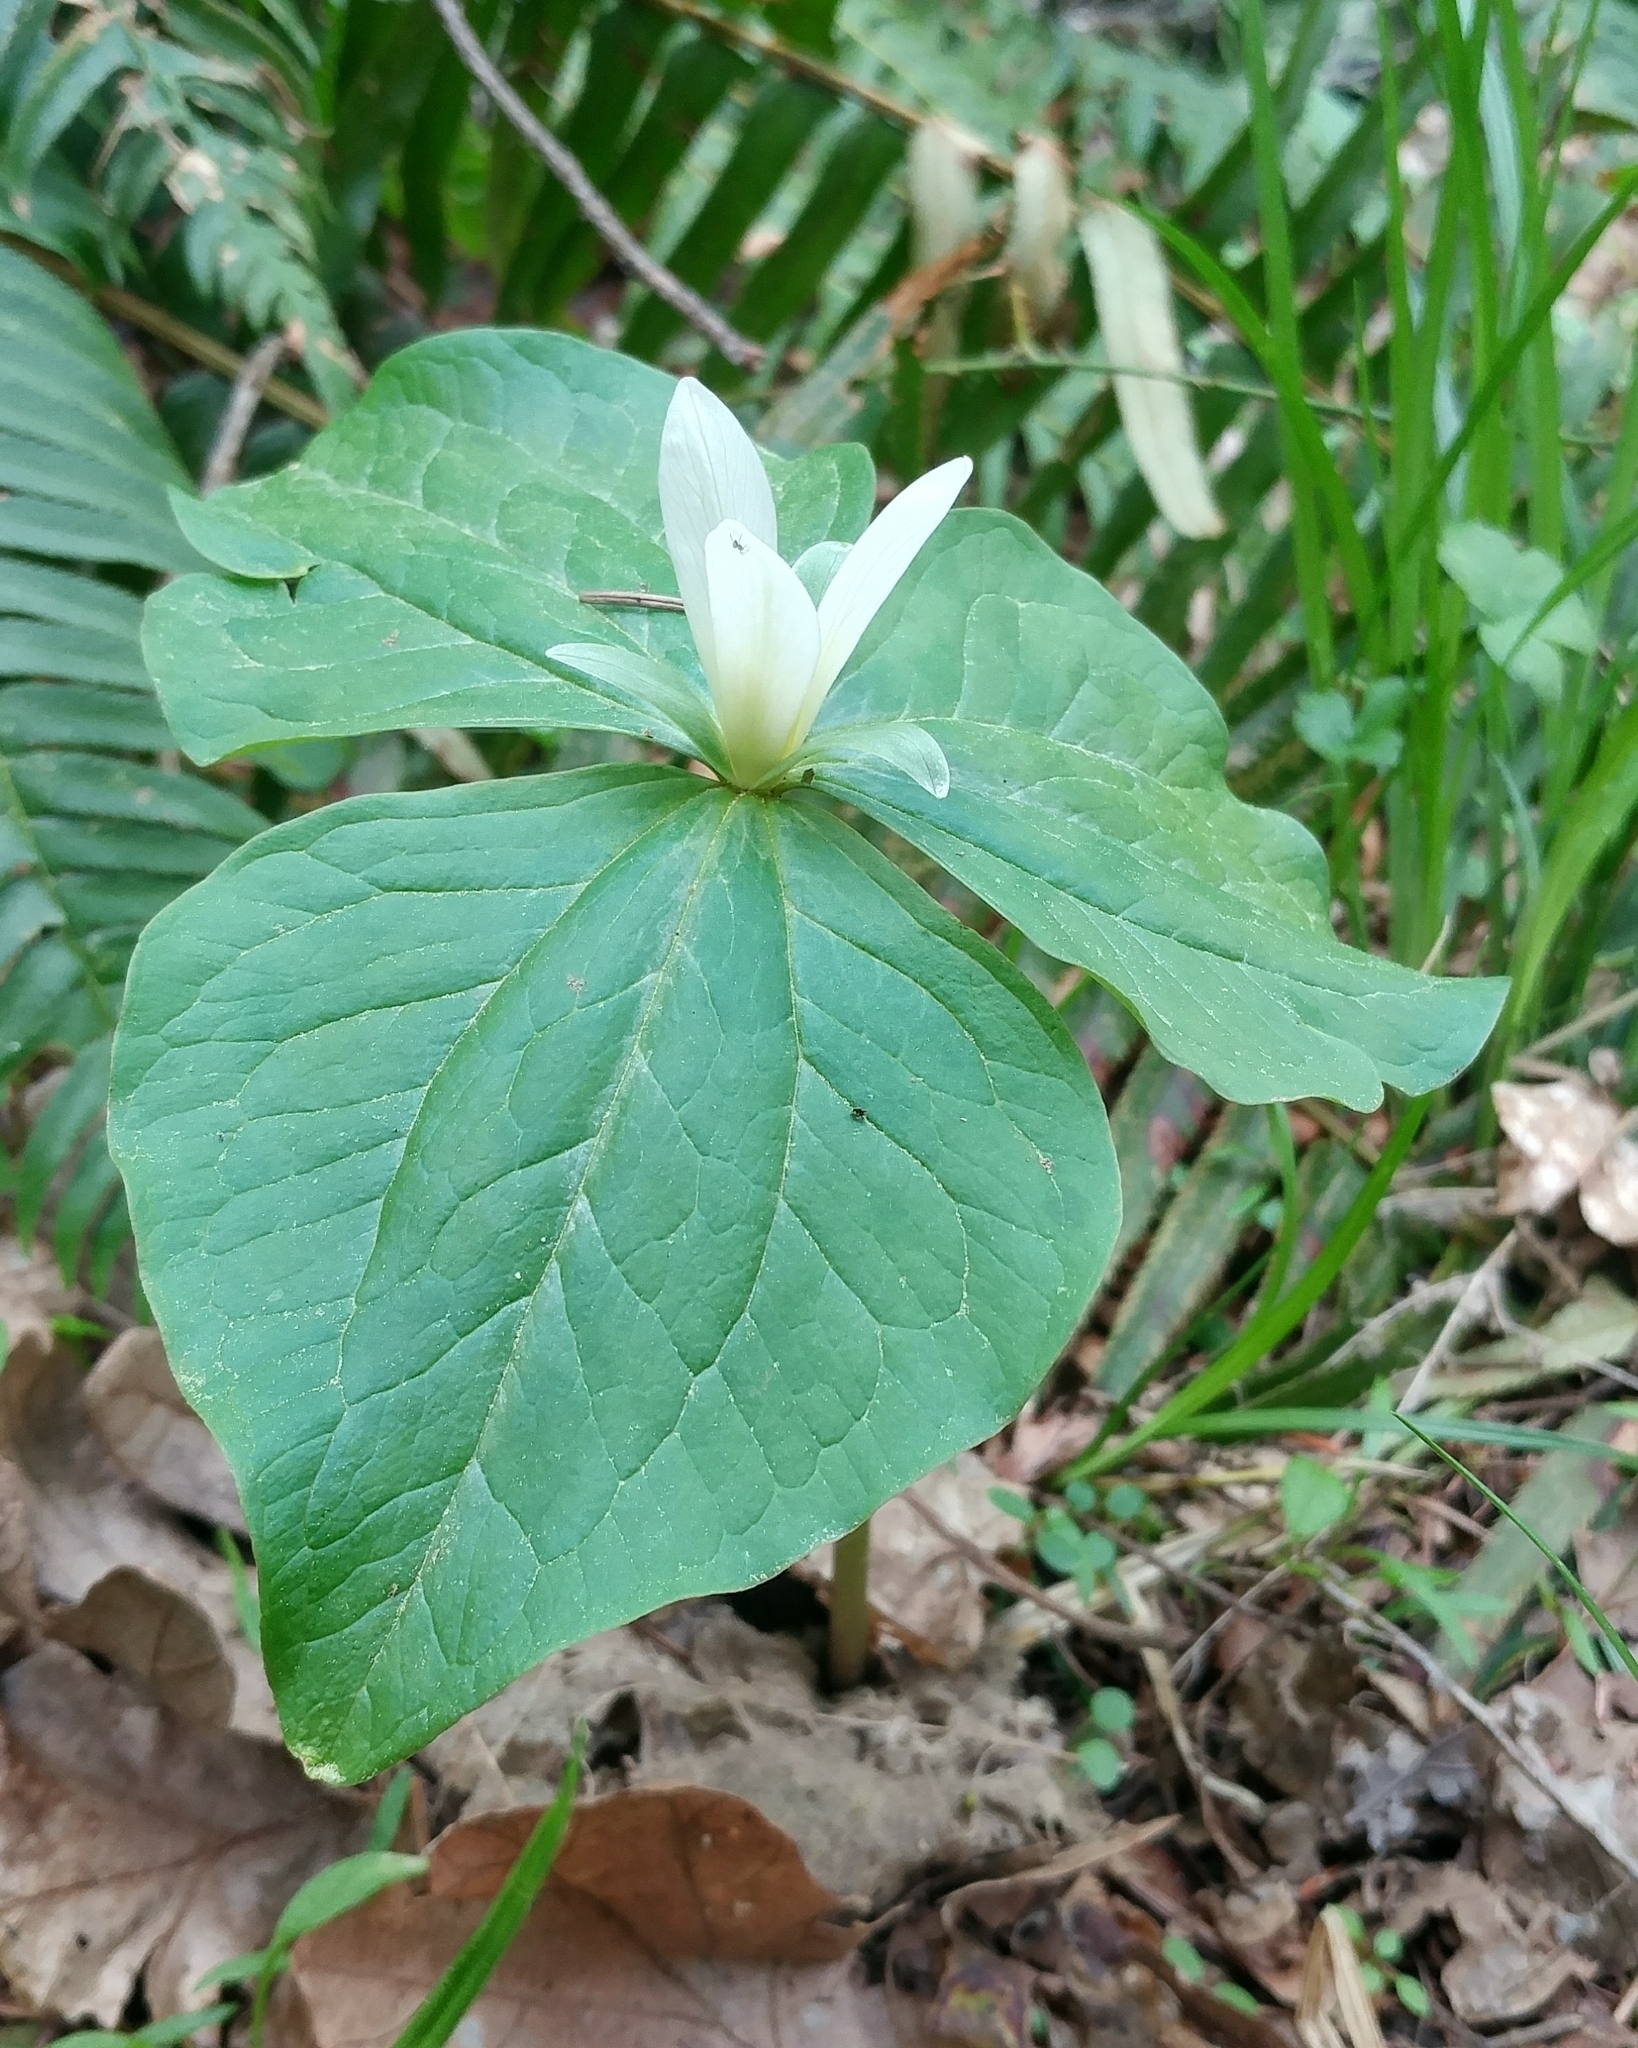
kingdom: Plantae
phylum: Tracheophyta
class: Liliopsida
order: Liliales
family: Melanthiaceae
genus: Trillium
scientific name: Trillium albidum
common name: Freeman's trillium
